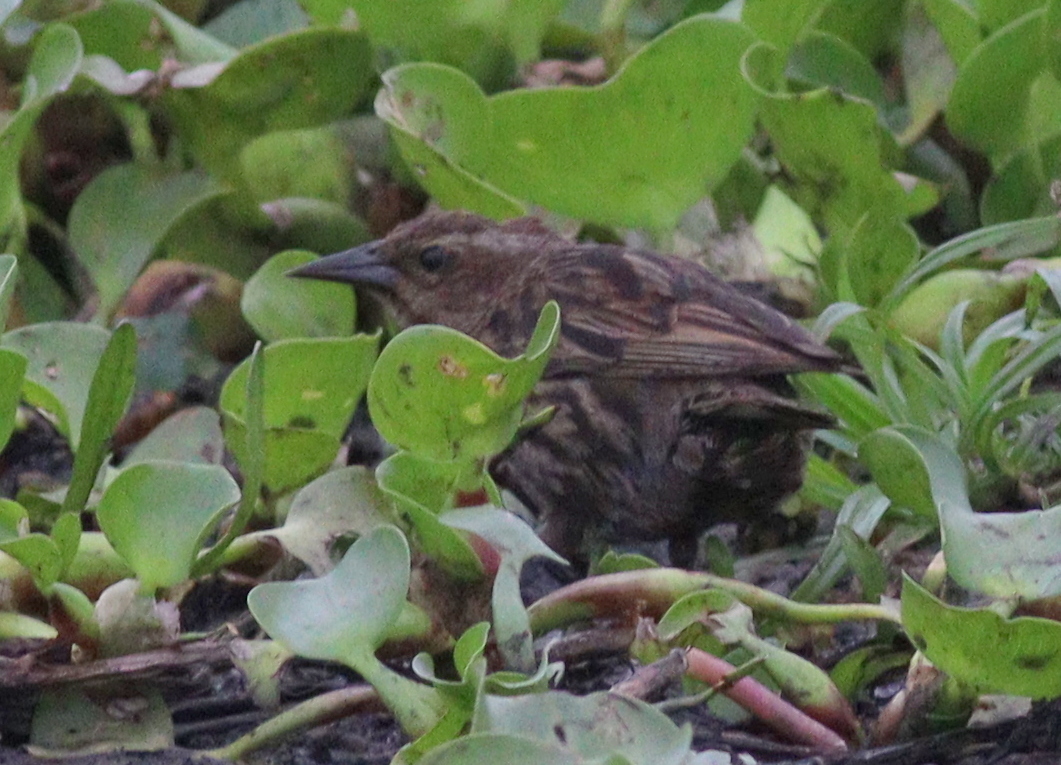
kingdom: Animalia
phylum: Chordata
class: Aves
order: Passeriformes
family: Icteridae
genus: Agelasticus
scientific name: Agelasticus thilius
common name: Yellow-winged blackbird
